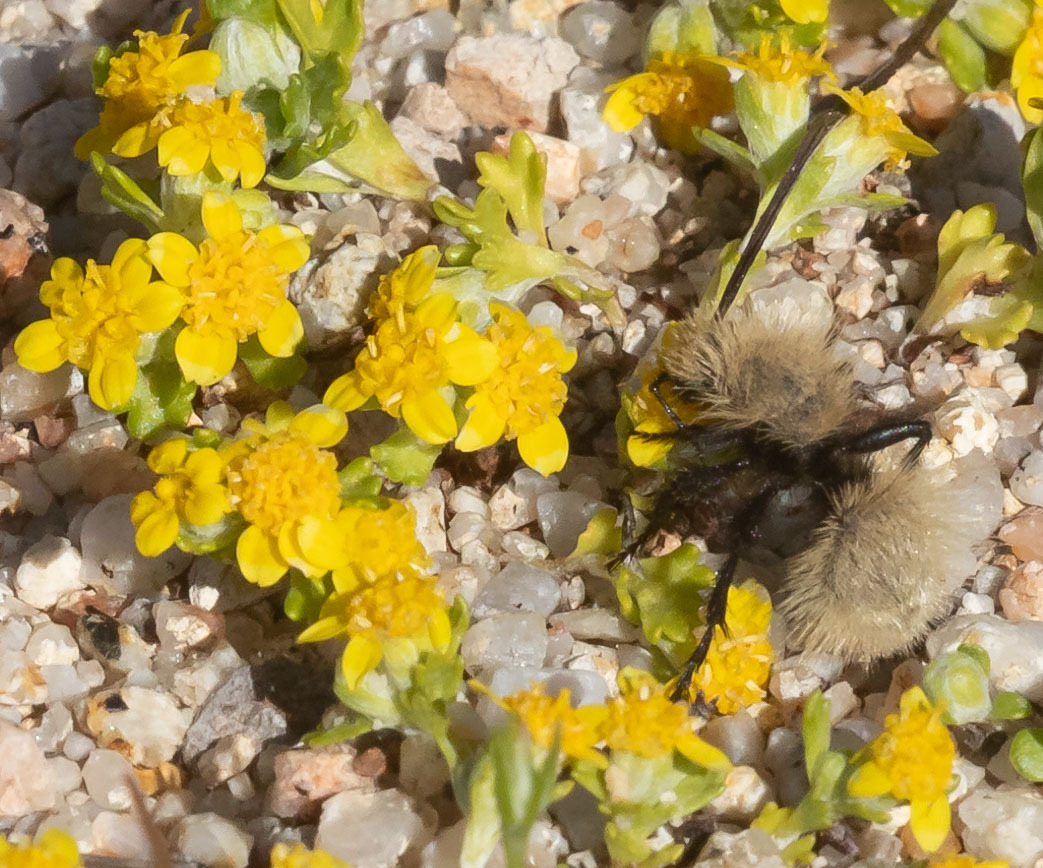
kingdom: Animalia
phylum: Arthropoda
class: Insecta
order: Hymenoptera
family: Mutillidae
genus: Dasymutilla
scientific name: Dasymutilla
